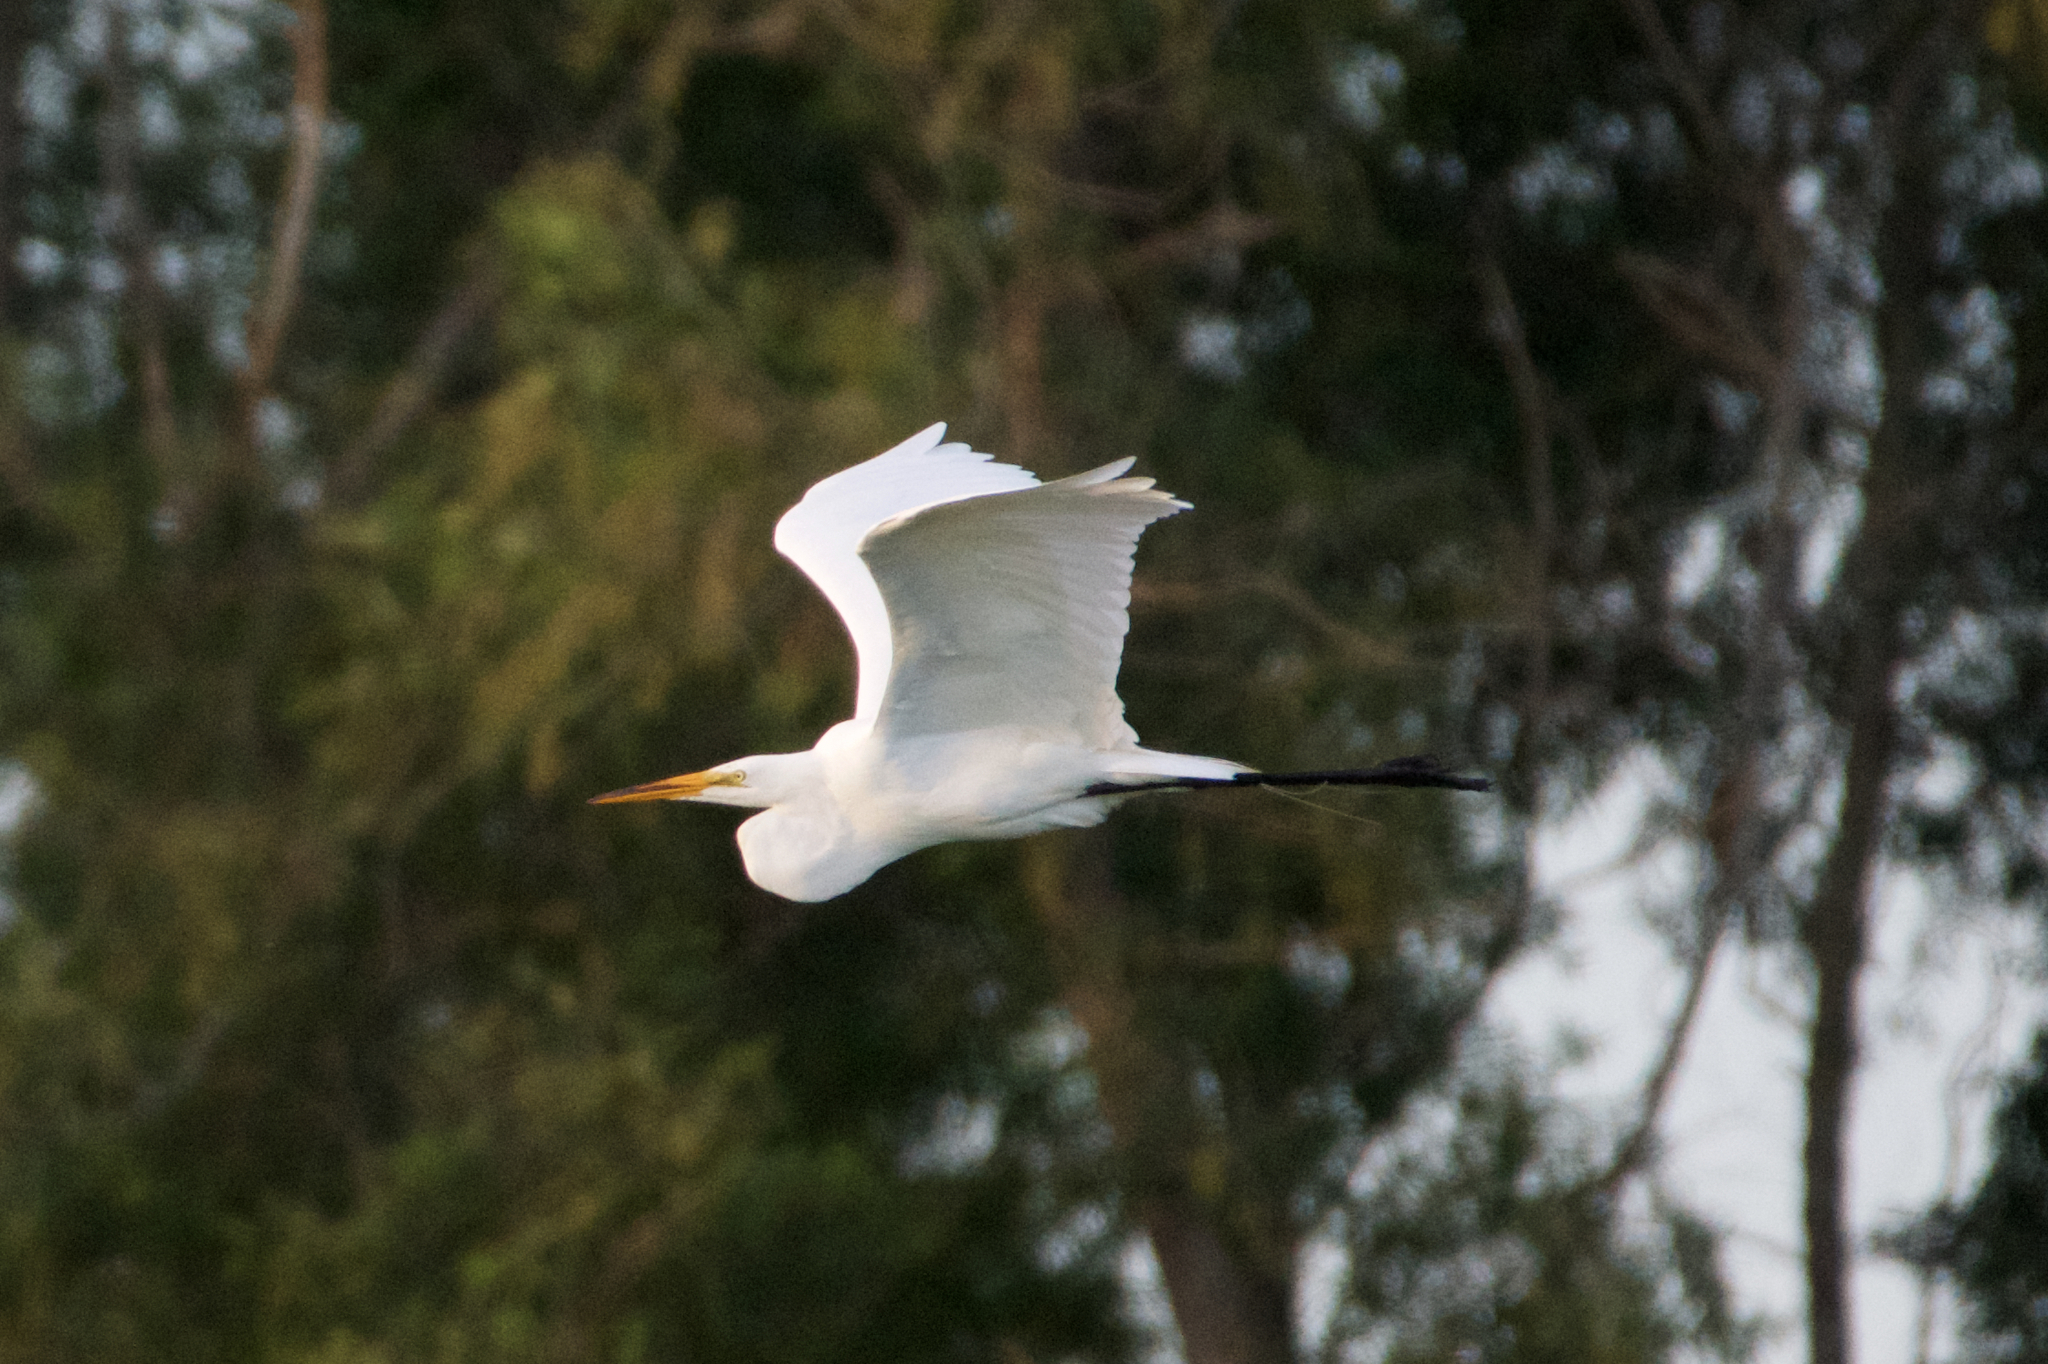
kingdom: Animalia
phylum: Chordata
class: Aves
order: Pelecaniformes
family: Ardeidae
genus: Ardea
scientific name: Ardea alba
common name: Great egret
